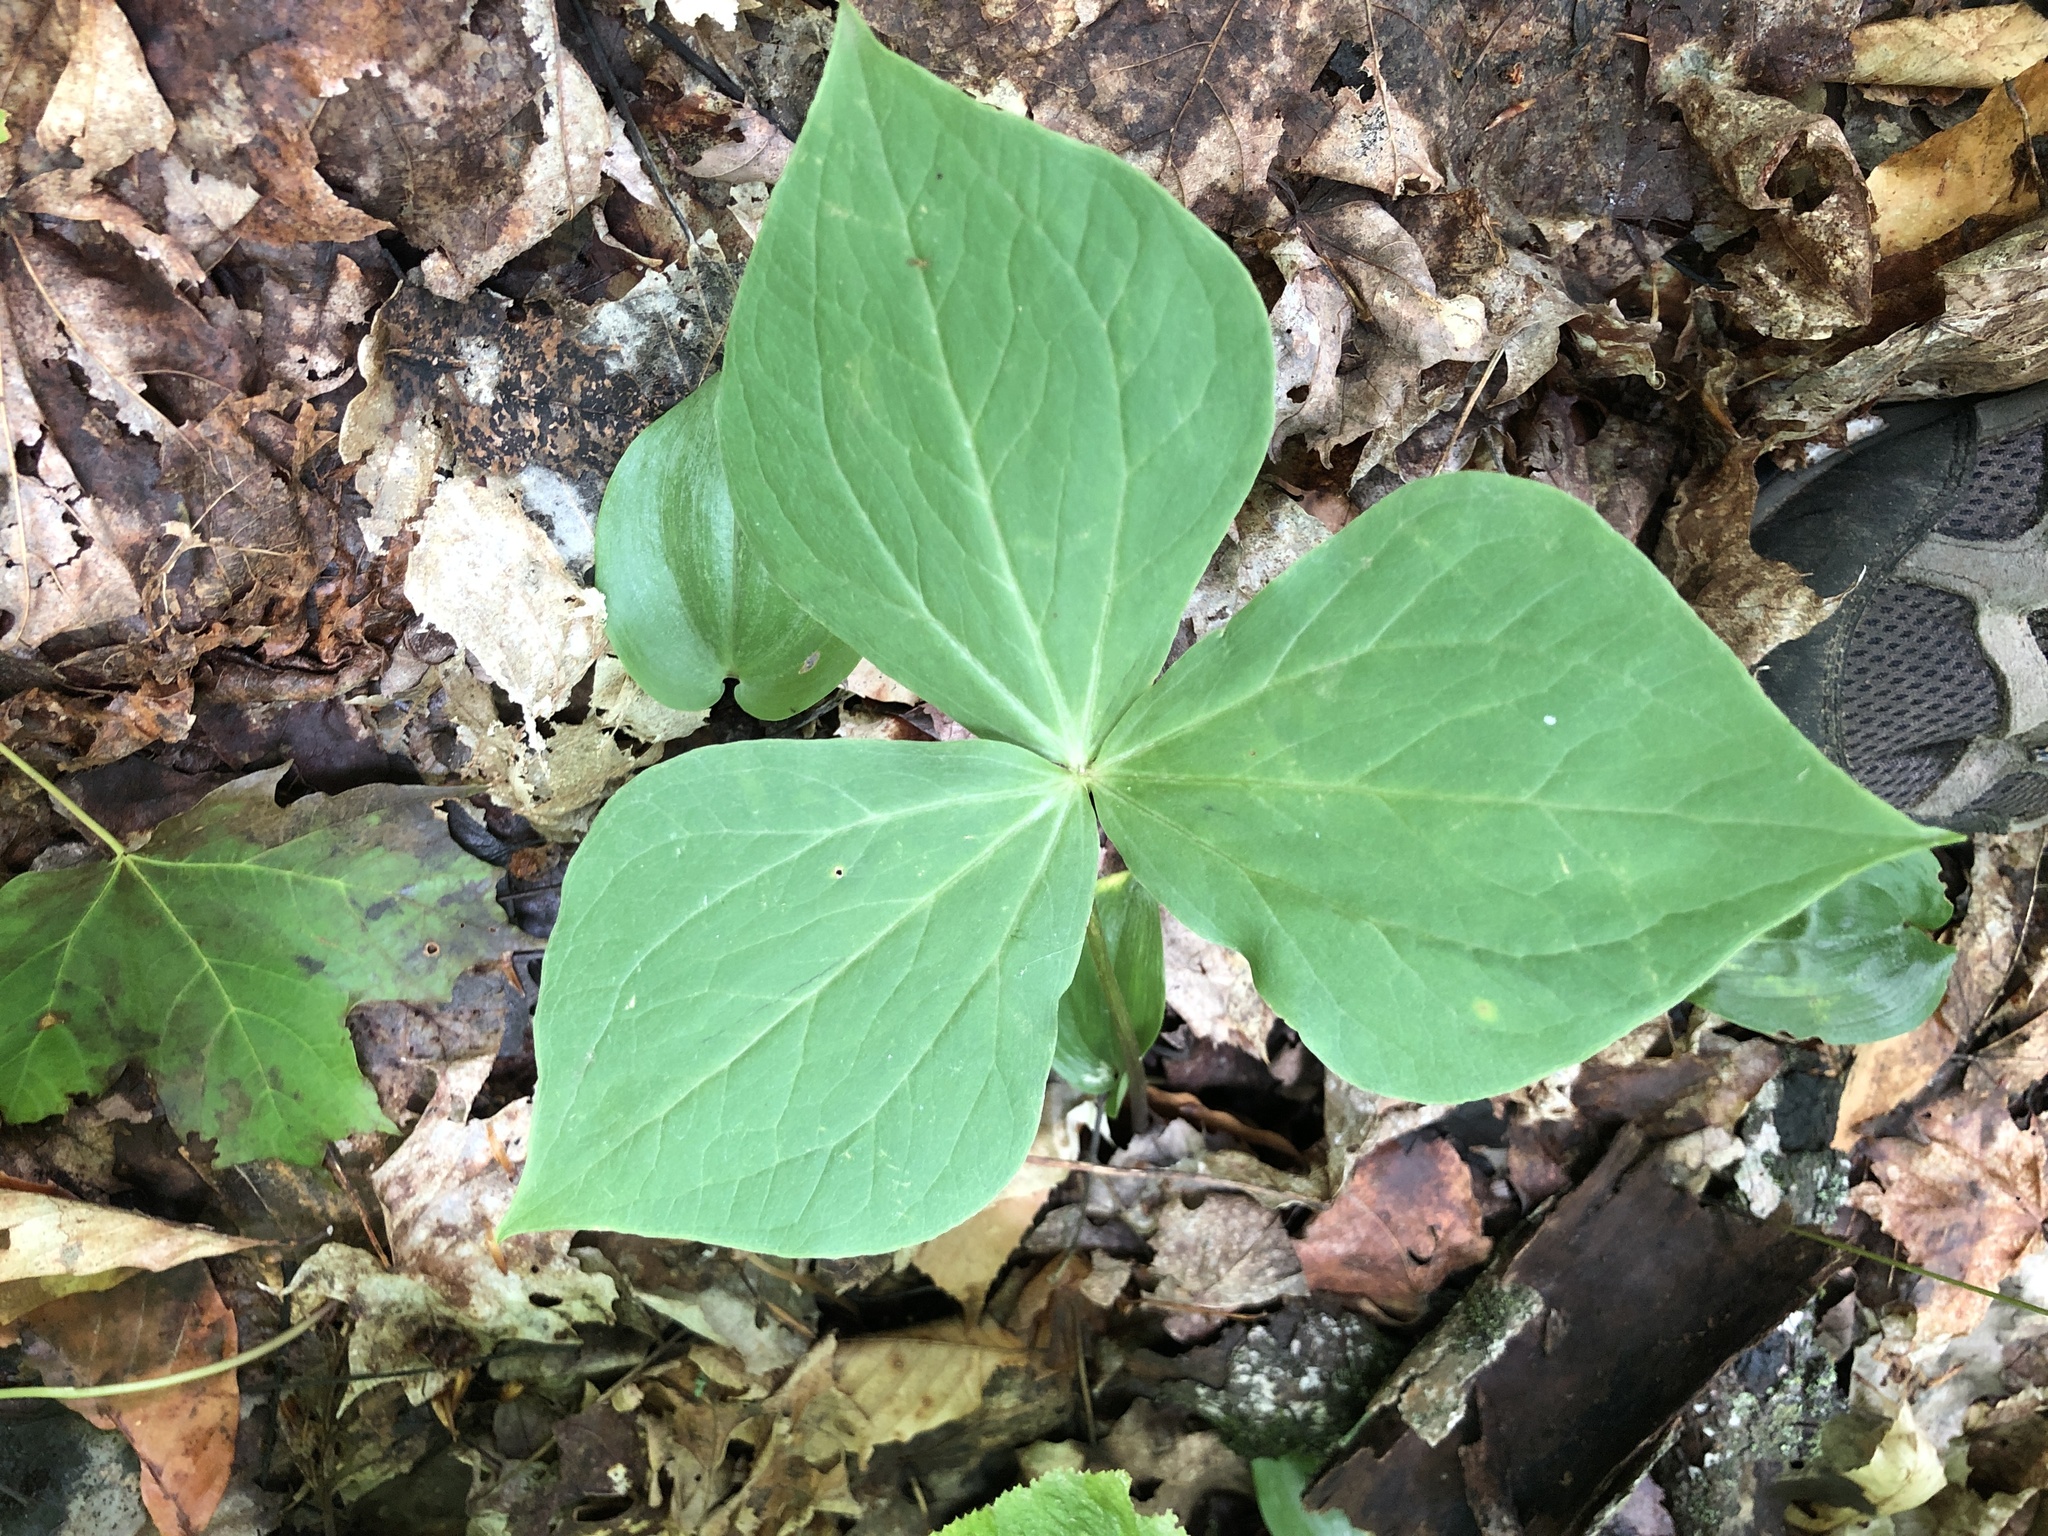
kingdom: Plantae
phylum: Tracheophyta
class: Liliopsida
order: Liliales
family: Melanthiaceae
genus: Trillium
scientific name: Trillium erectum
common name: Purple trillium
